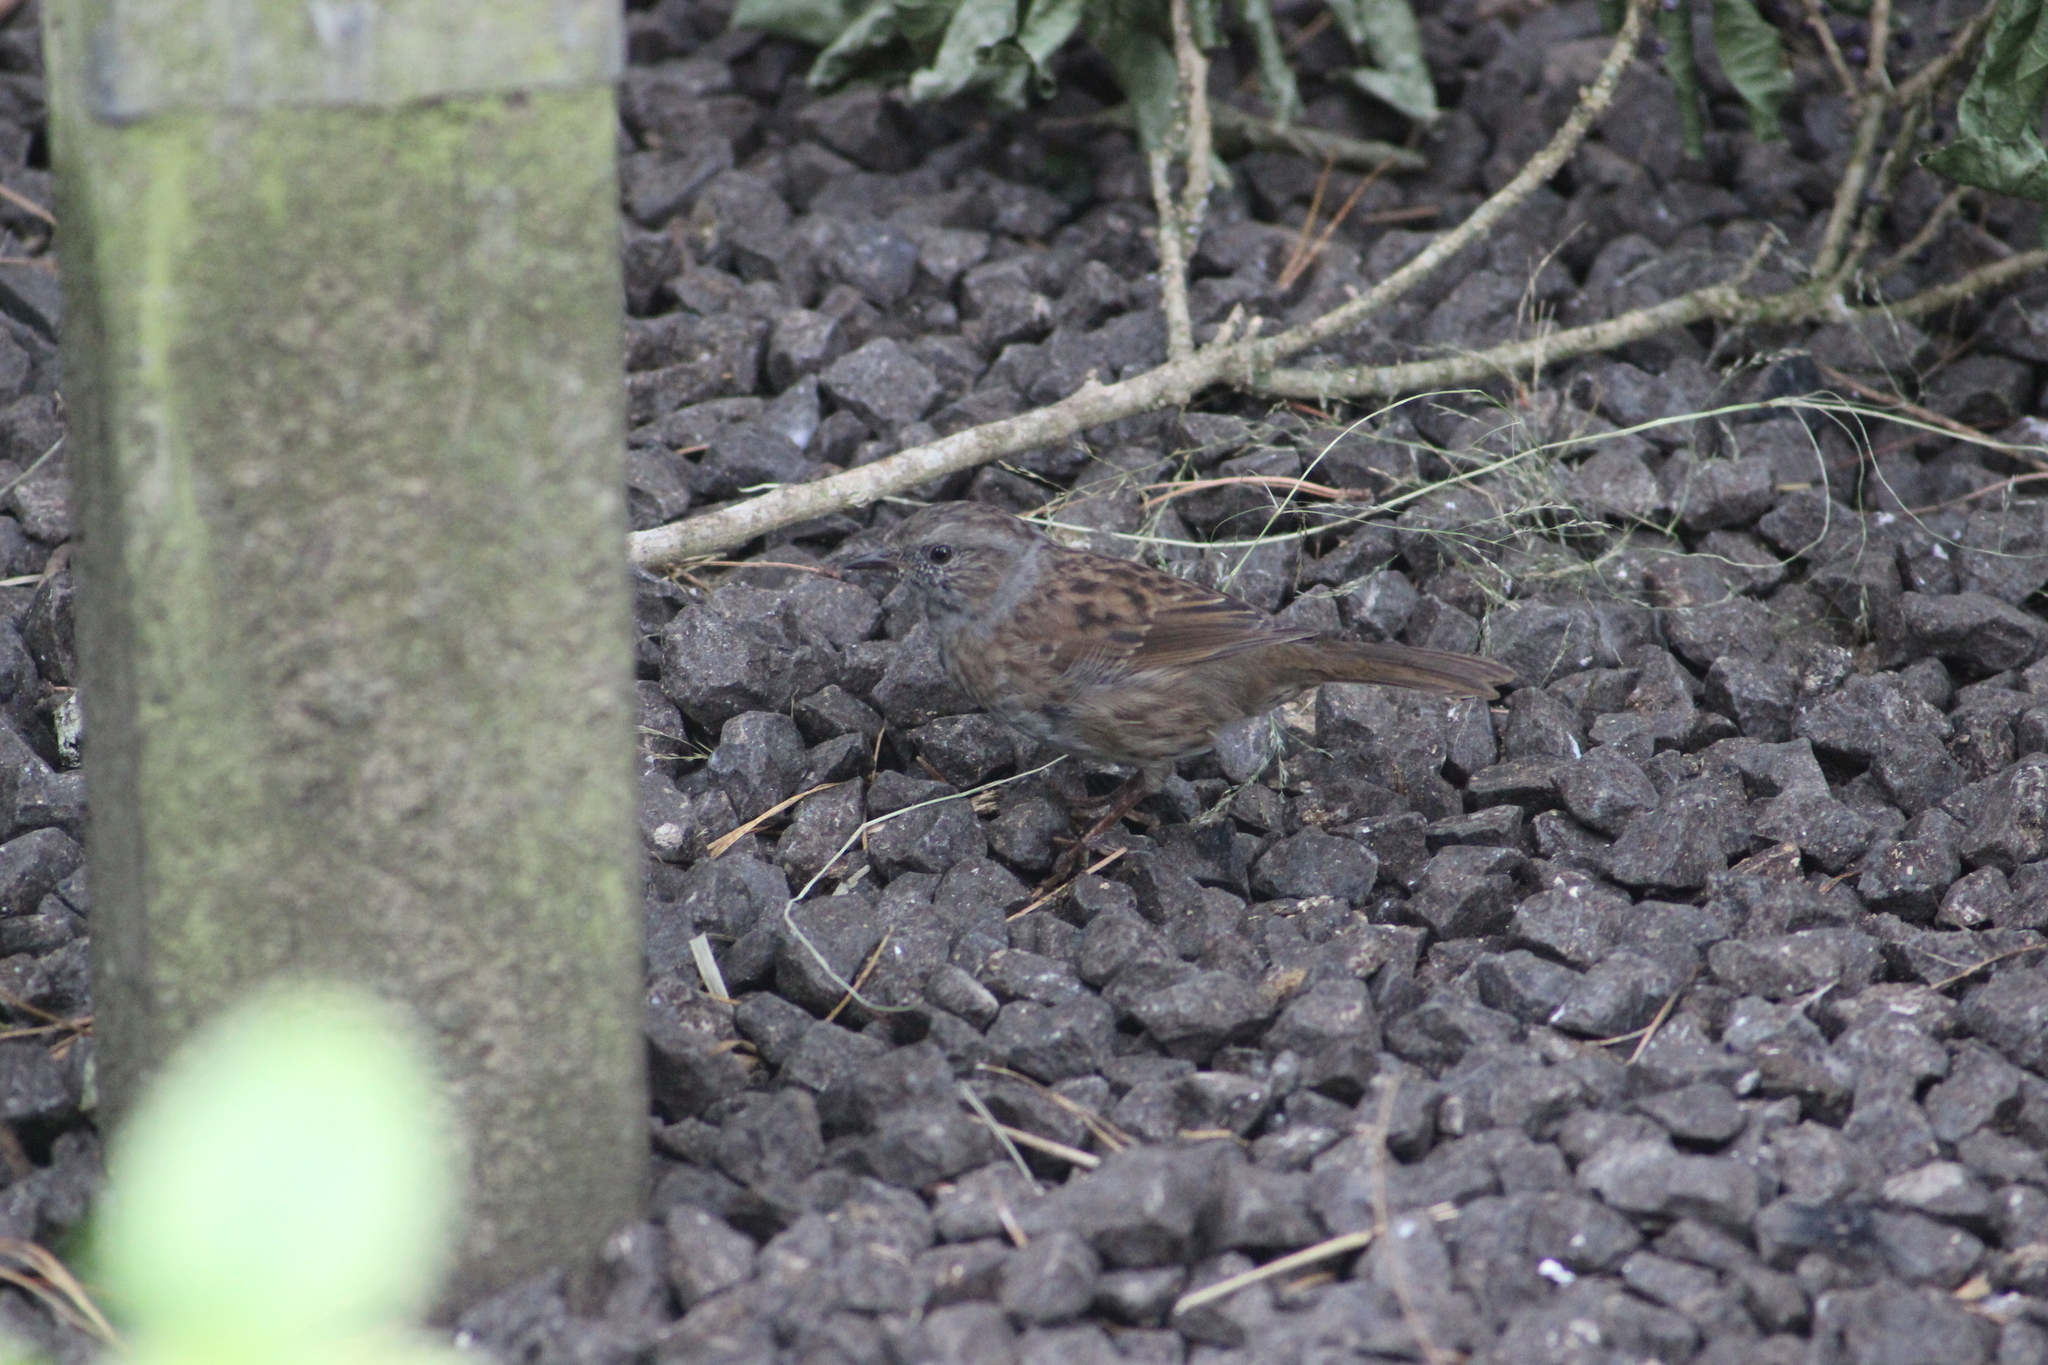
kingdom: Animalia
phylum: Chordata
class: Aves
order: Passeriformes
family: Prunellidae
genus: Prunella
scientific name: Prunella modularis
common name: Dunnock
